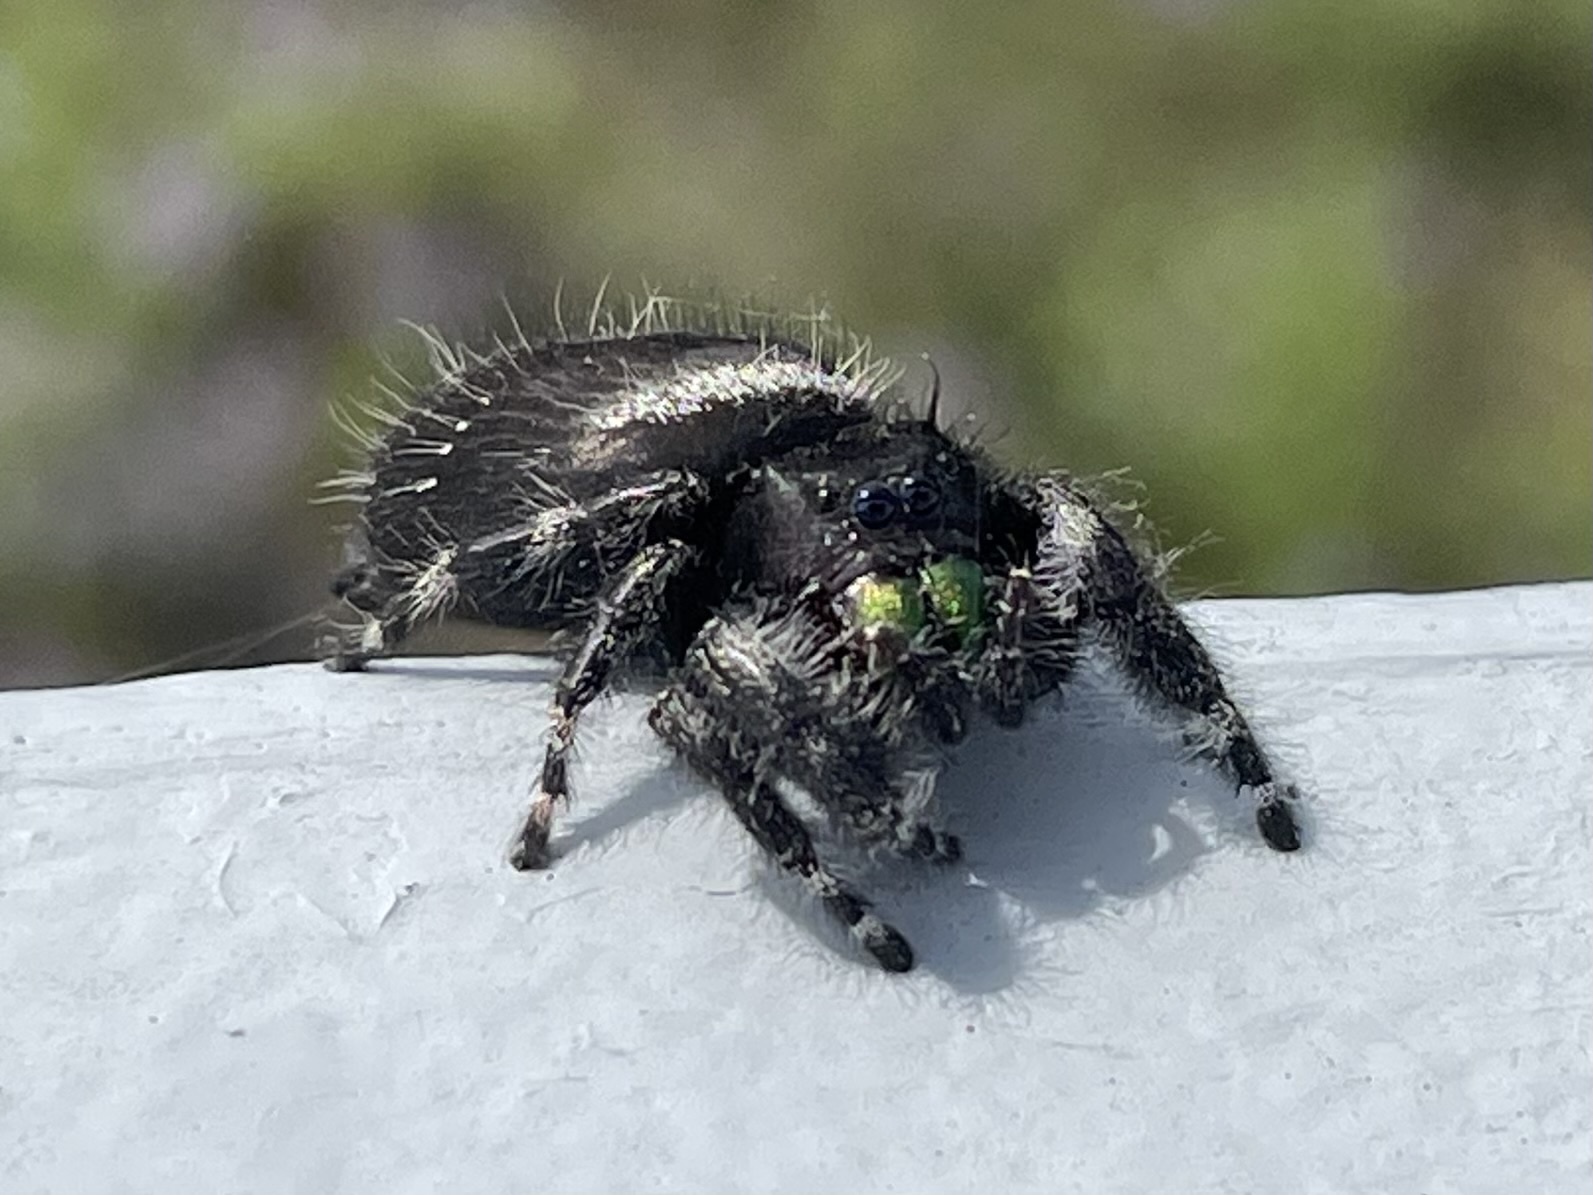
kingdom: Animalia
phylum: Arthropoda
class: Arachnida
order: Araneae
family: Salticidae
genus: Phidippus
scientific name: Phidippus audax
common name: Bold jumper
